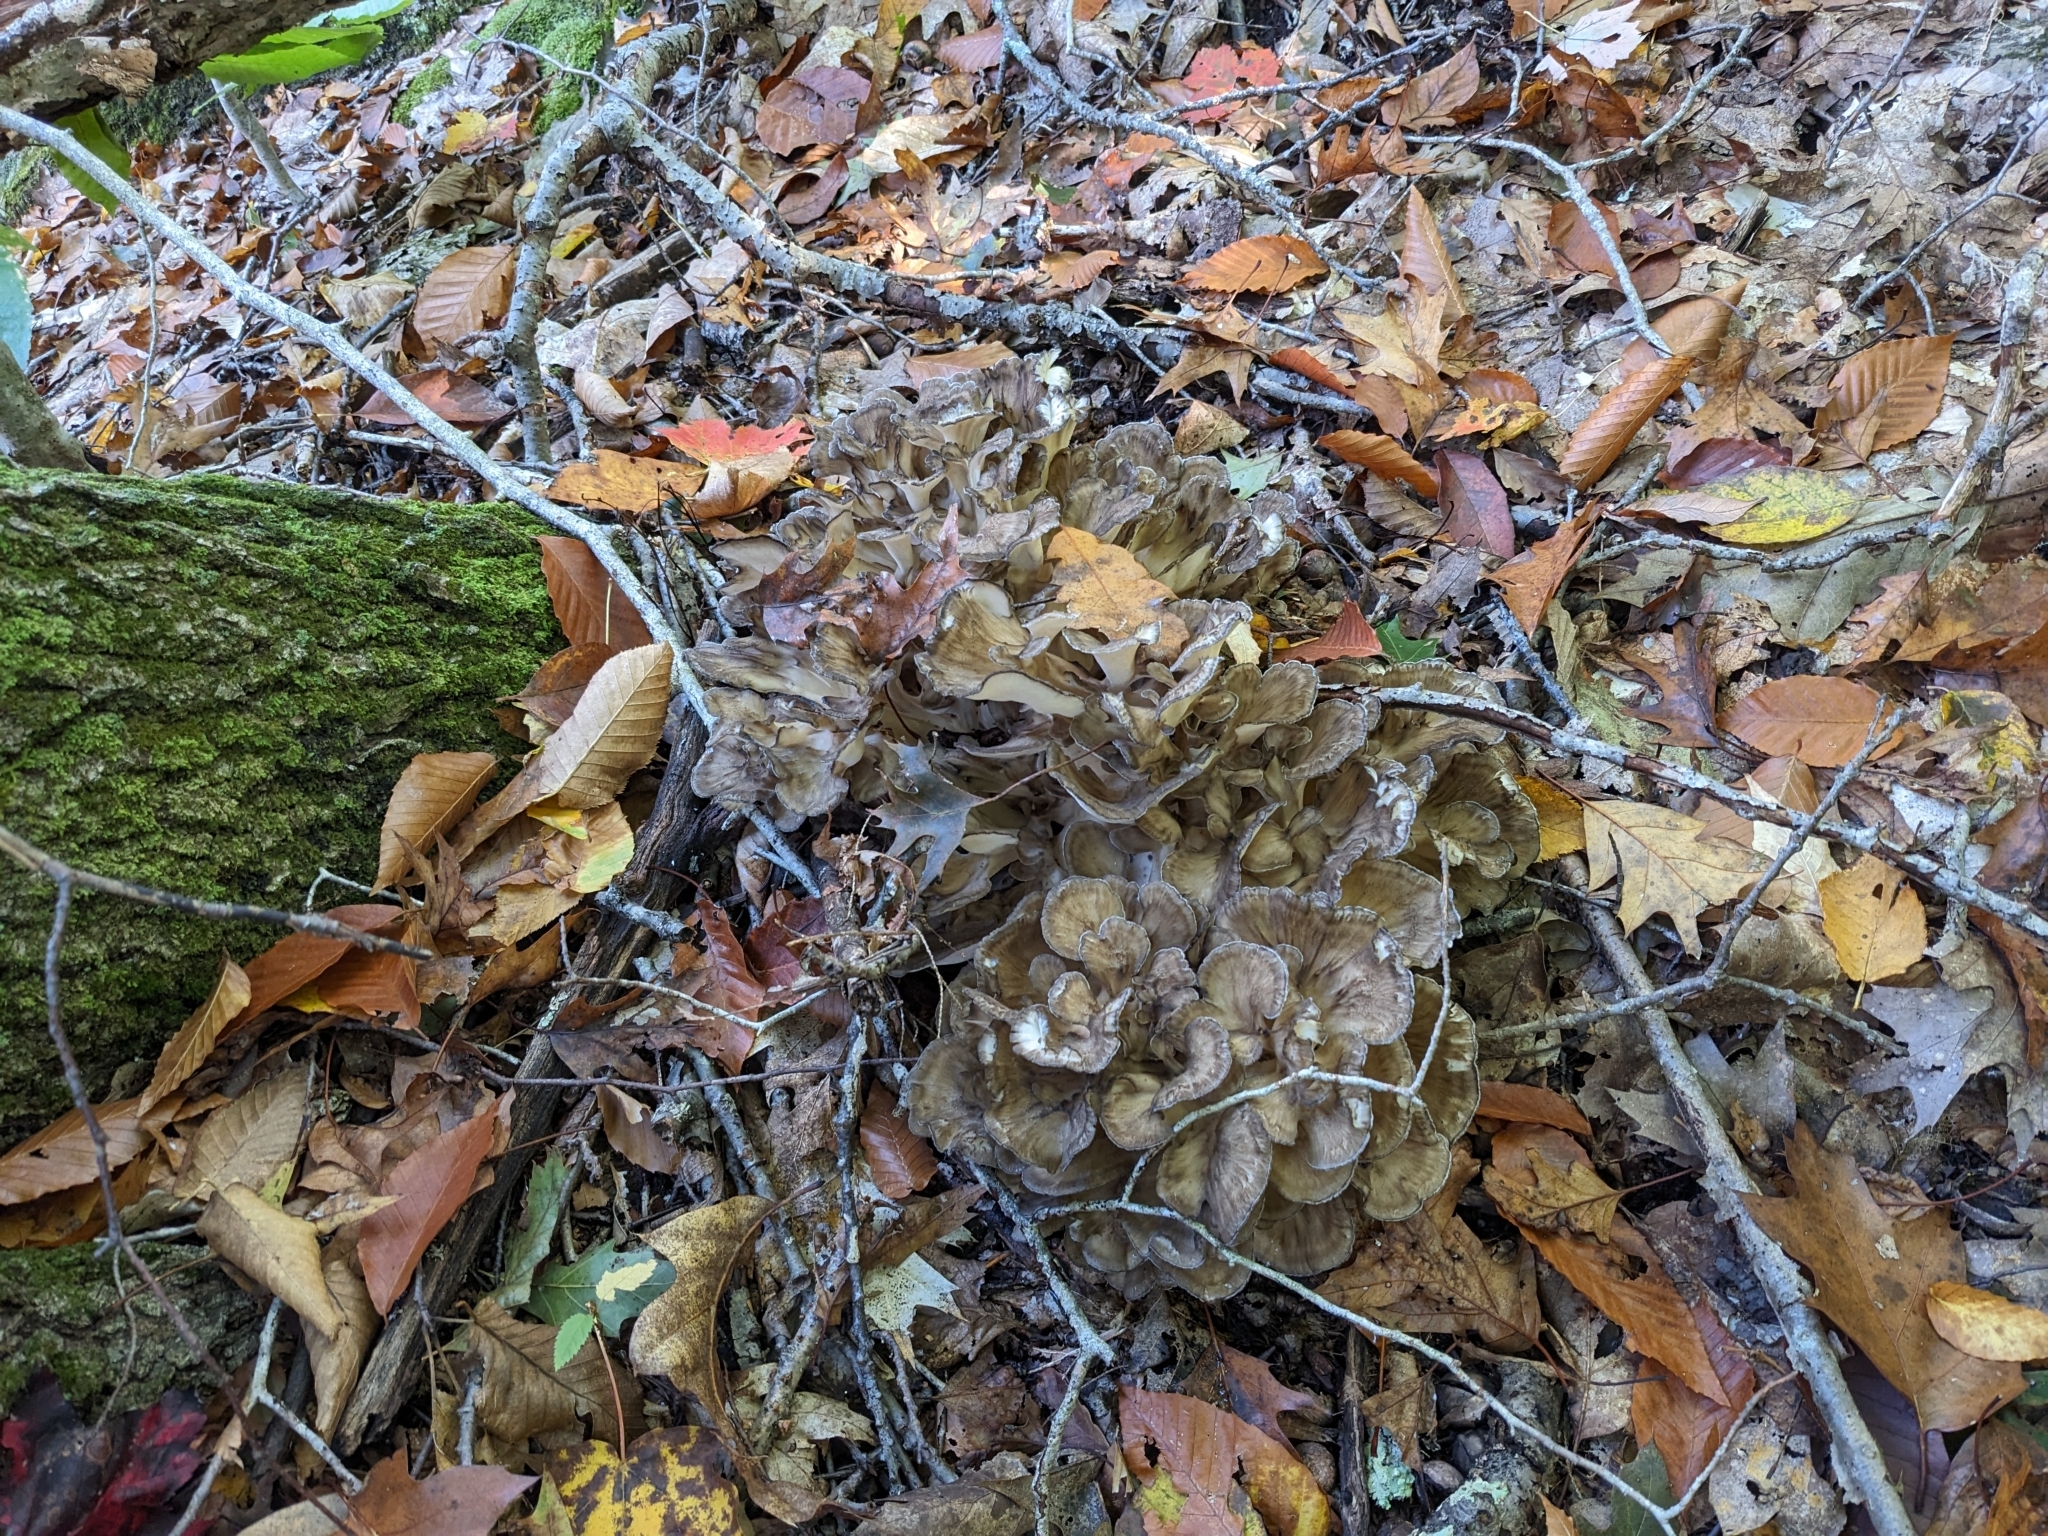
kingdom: Fungi
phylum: Basidiomycota
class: Agaricomycetes
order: Polyporales
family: Grifolaceae
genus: Grifola
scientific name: Grifola frondosa
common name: Hen of the woods
